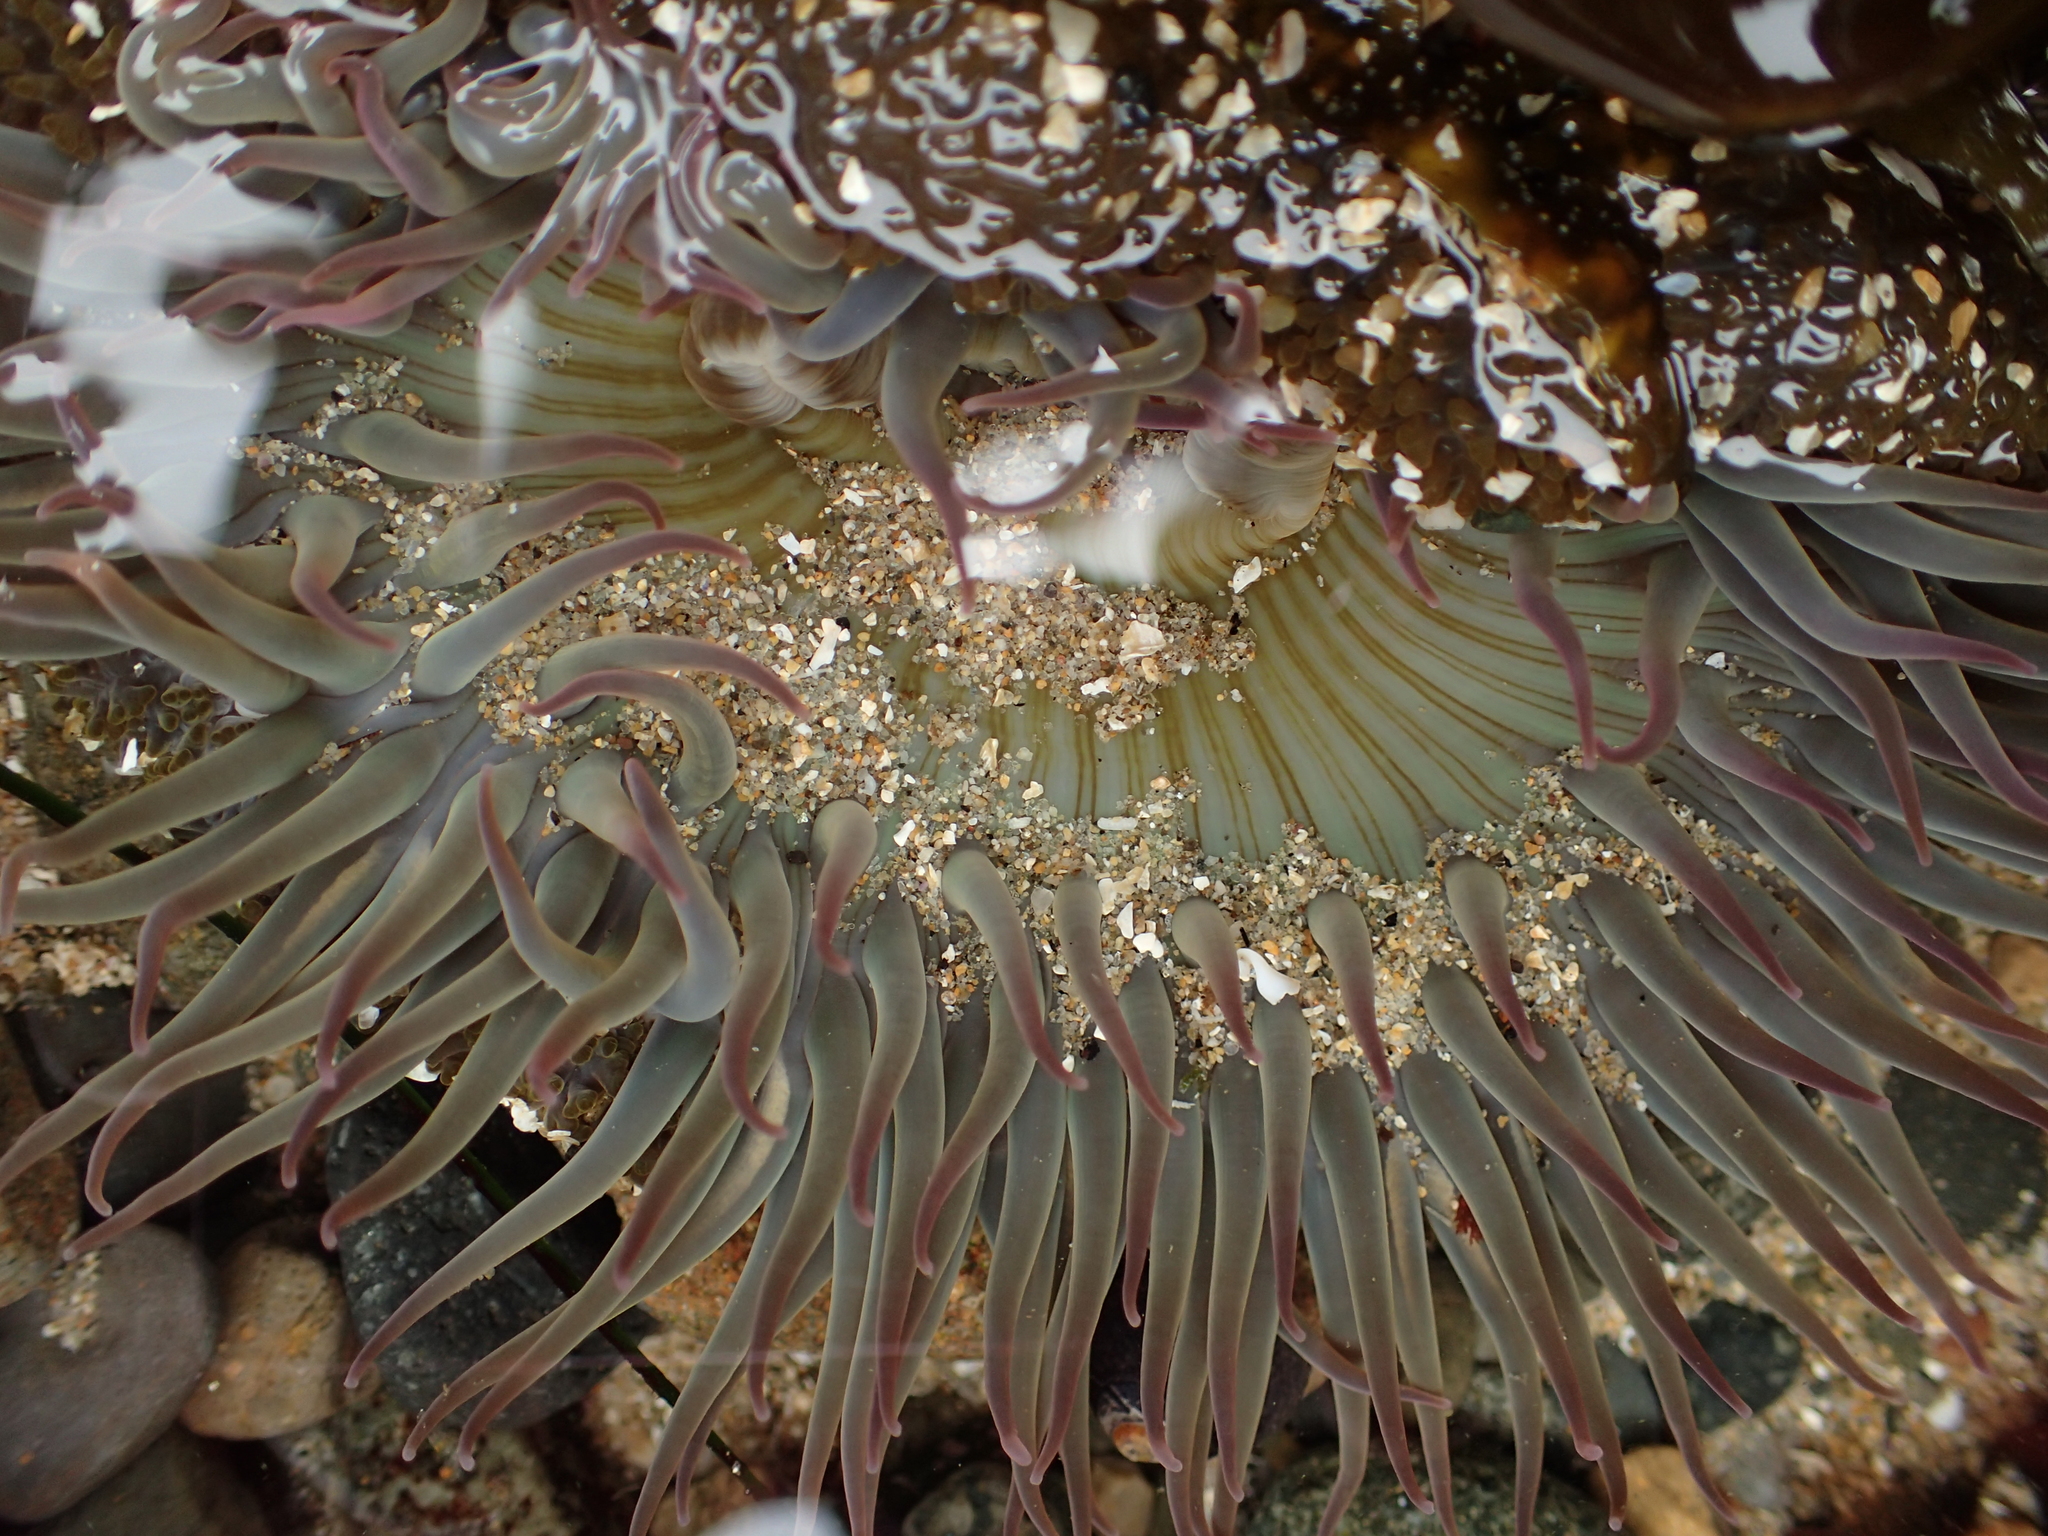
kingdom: Animalia
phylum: Cnidaria
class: Anthozoa
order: Actiniaria
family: Actiniidae
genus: Anthopleura
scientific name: Anthopleura sola
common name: Sun anemone
